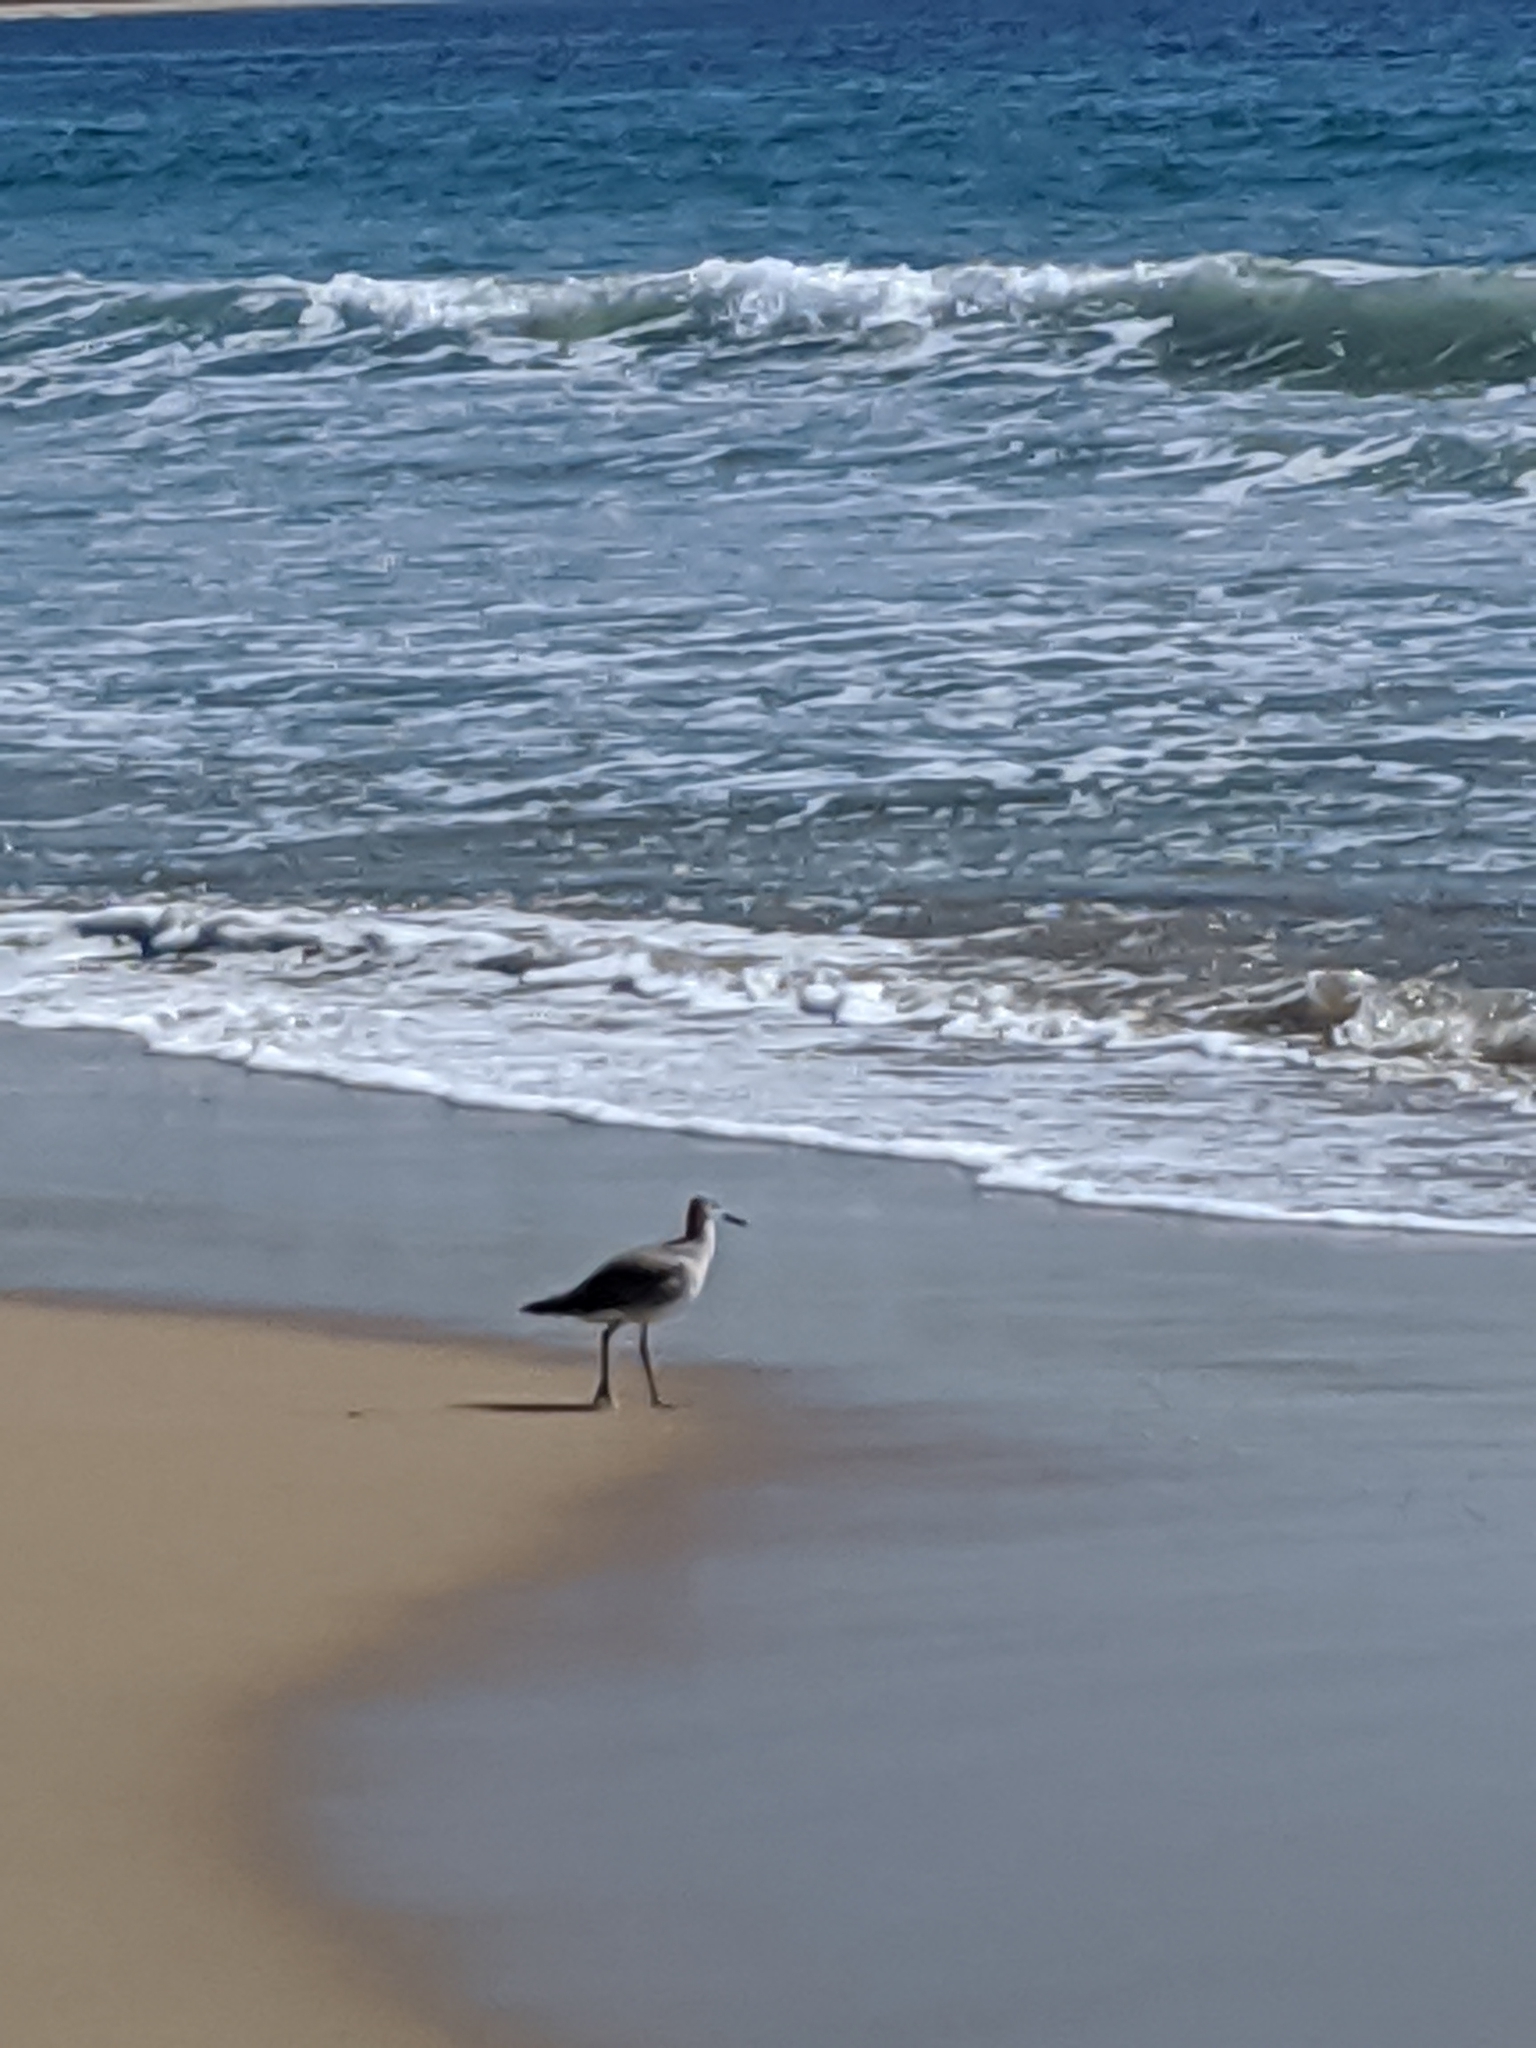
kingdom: Animalia
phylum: Chordata
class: Aves
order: Charadriiformes
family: Scolopacidae
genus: Tringa
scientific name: Tringa semipalmata
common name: Willet
